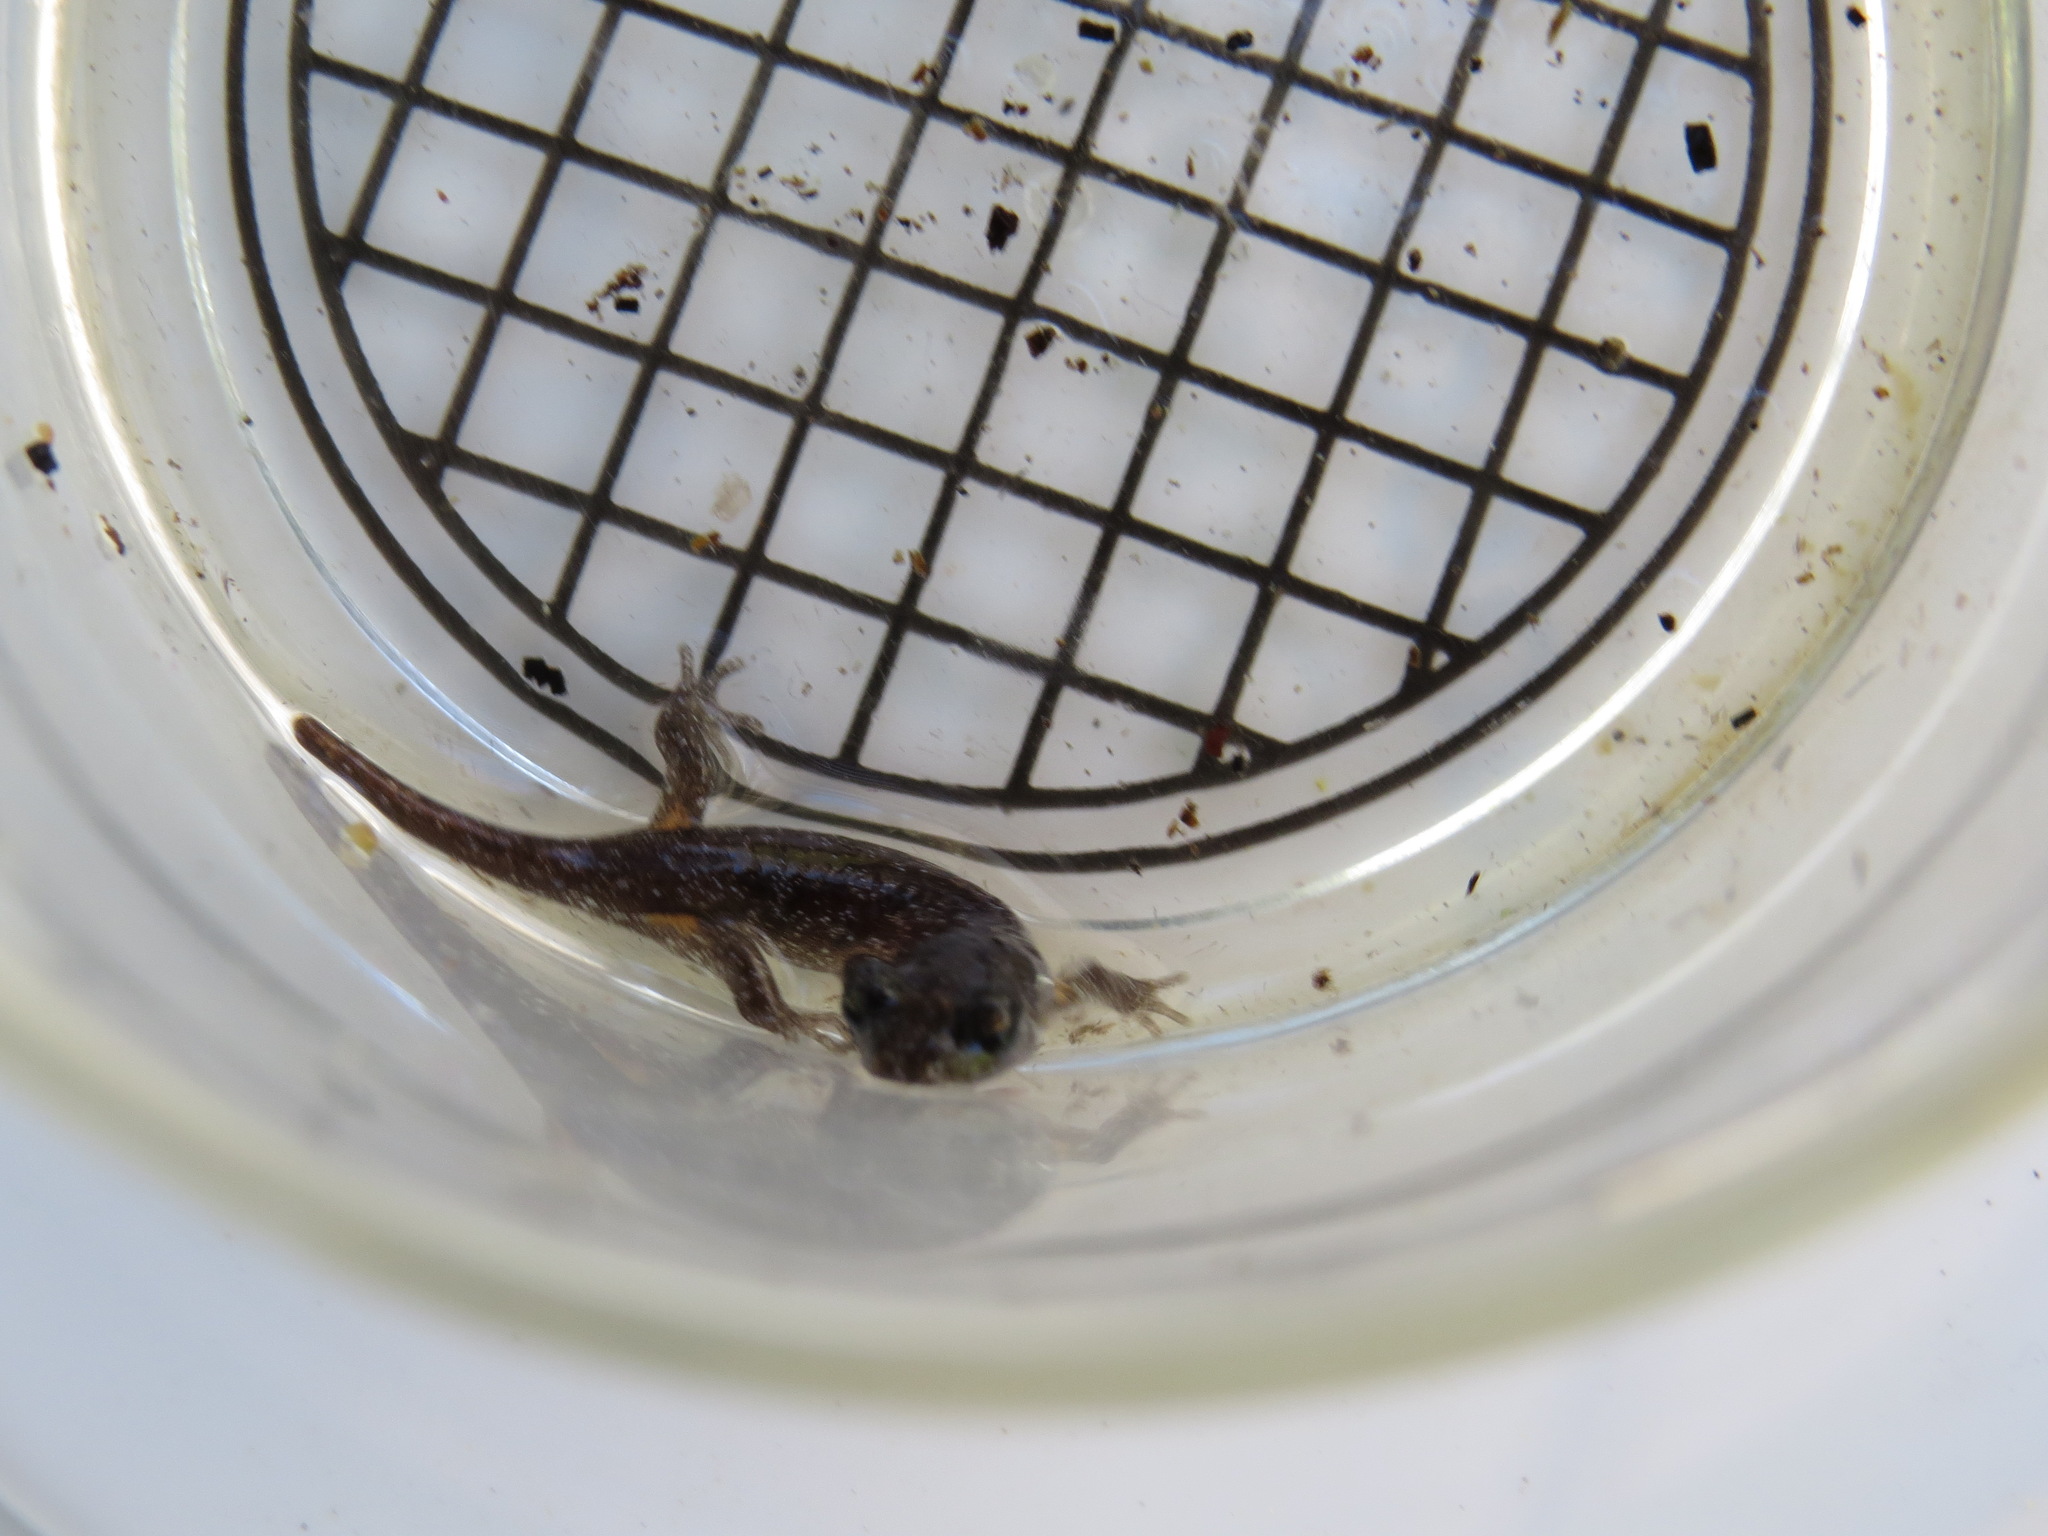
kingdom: Animalia
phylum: Chordata
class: Amphibia
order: Caudata
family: Plethodontidae
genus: Aneides
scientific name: Aneides lugubris
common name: Arboreal salamander
